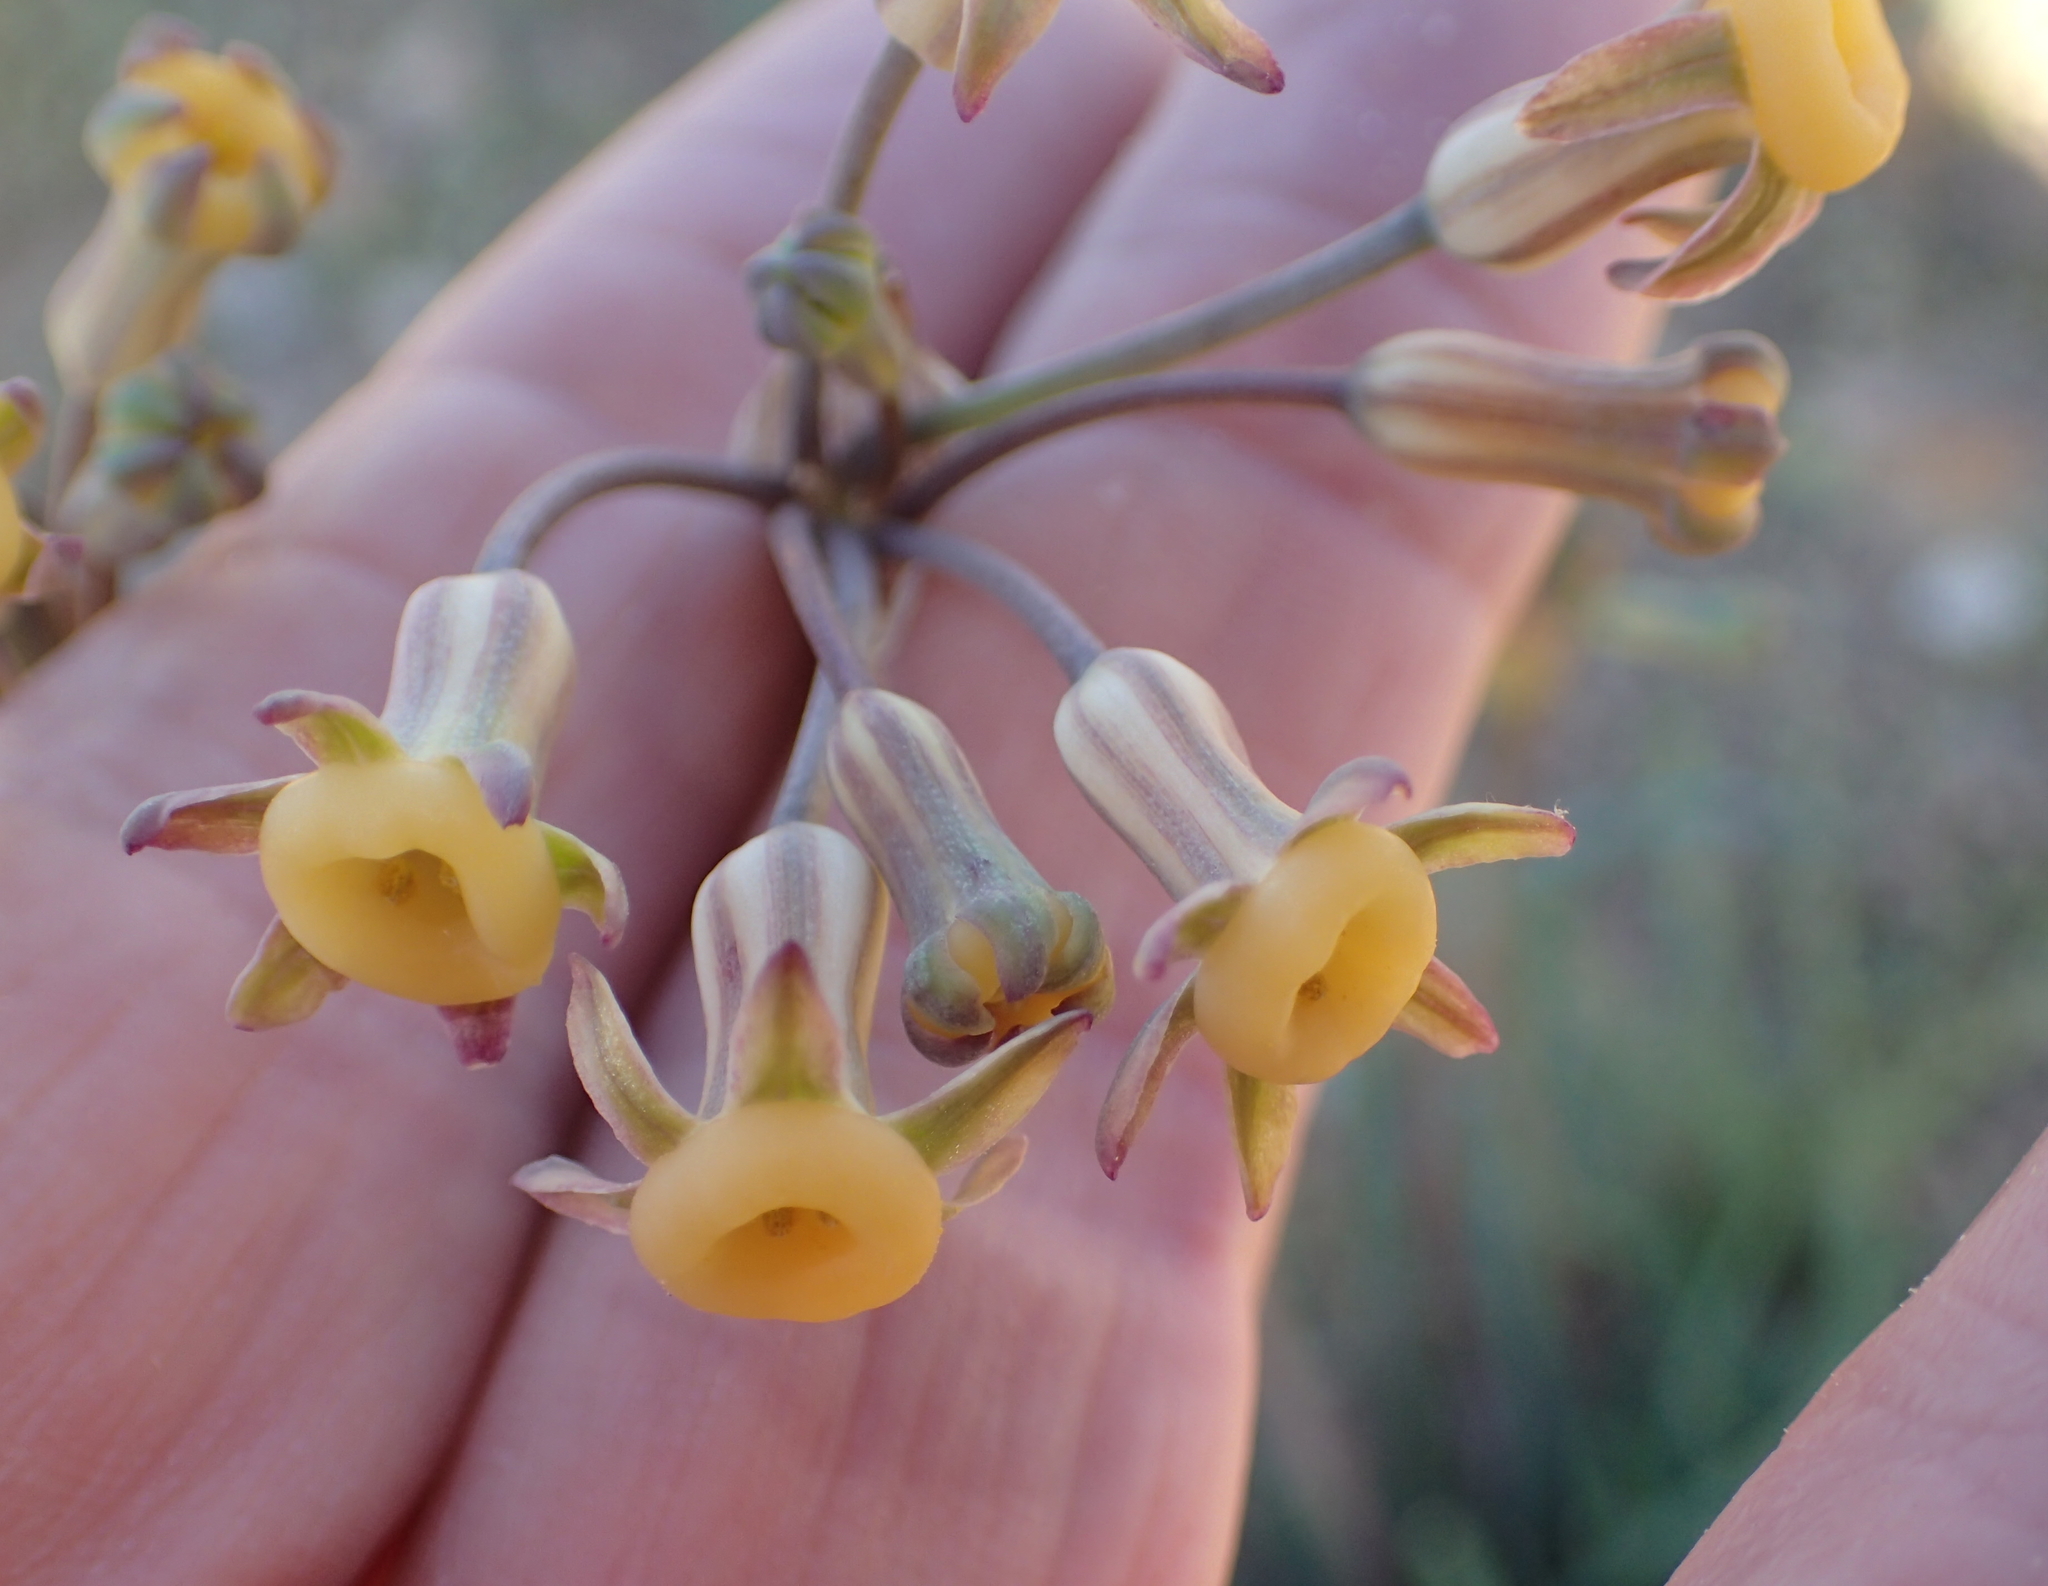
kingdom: Plantae
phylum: Tracheophyta
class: Liliopsida
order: Asparagales
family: Amaryllidaceae
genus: Tulbaghia
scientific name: Tulbaghia dregeana
